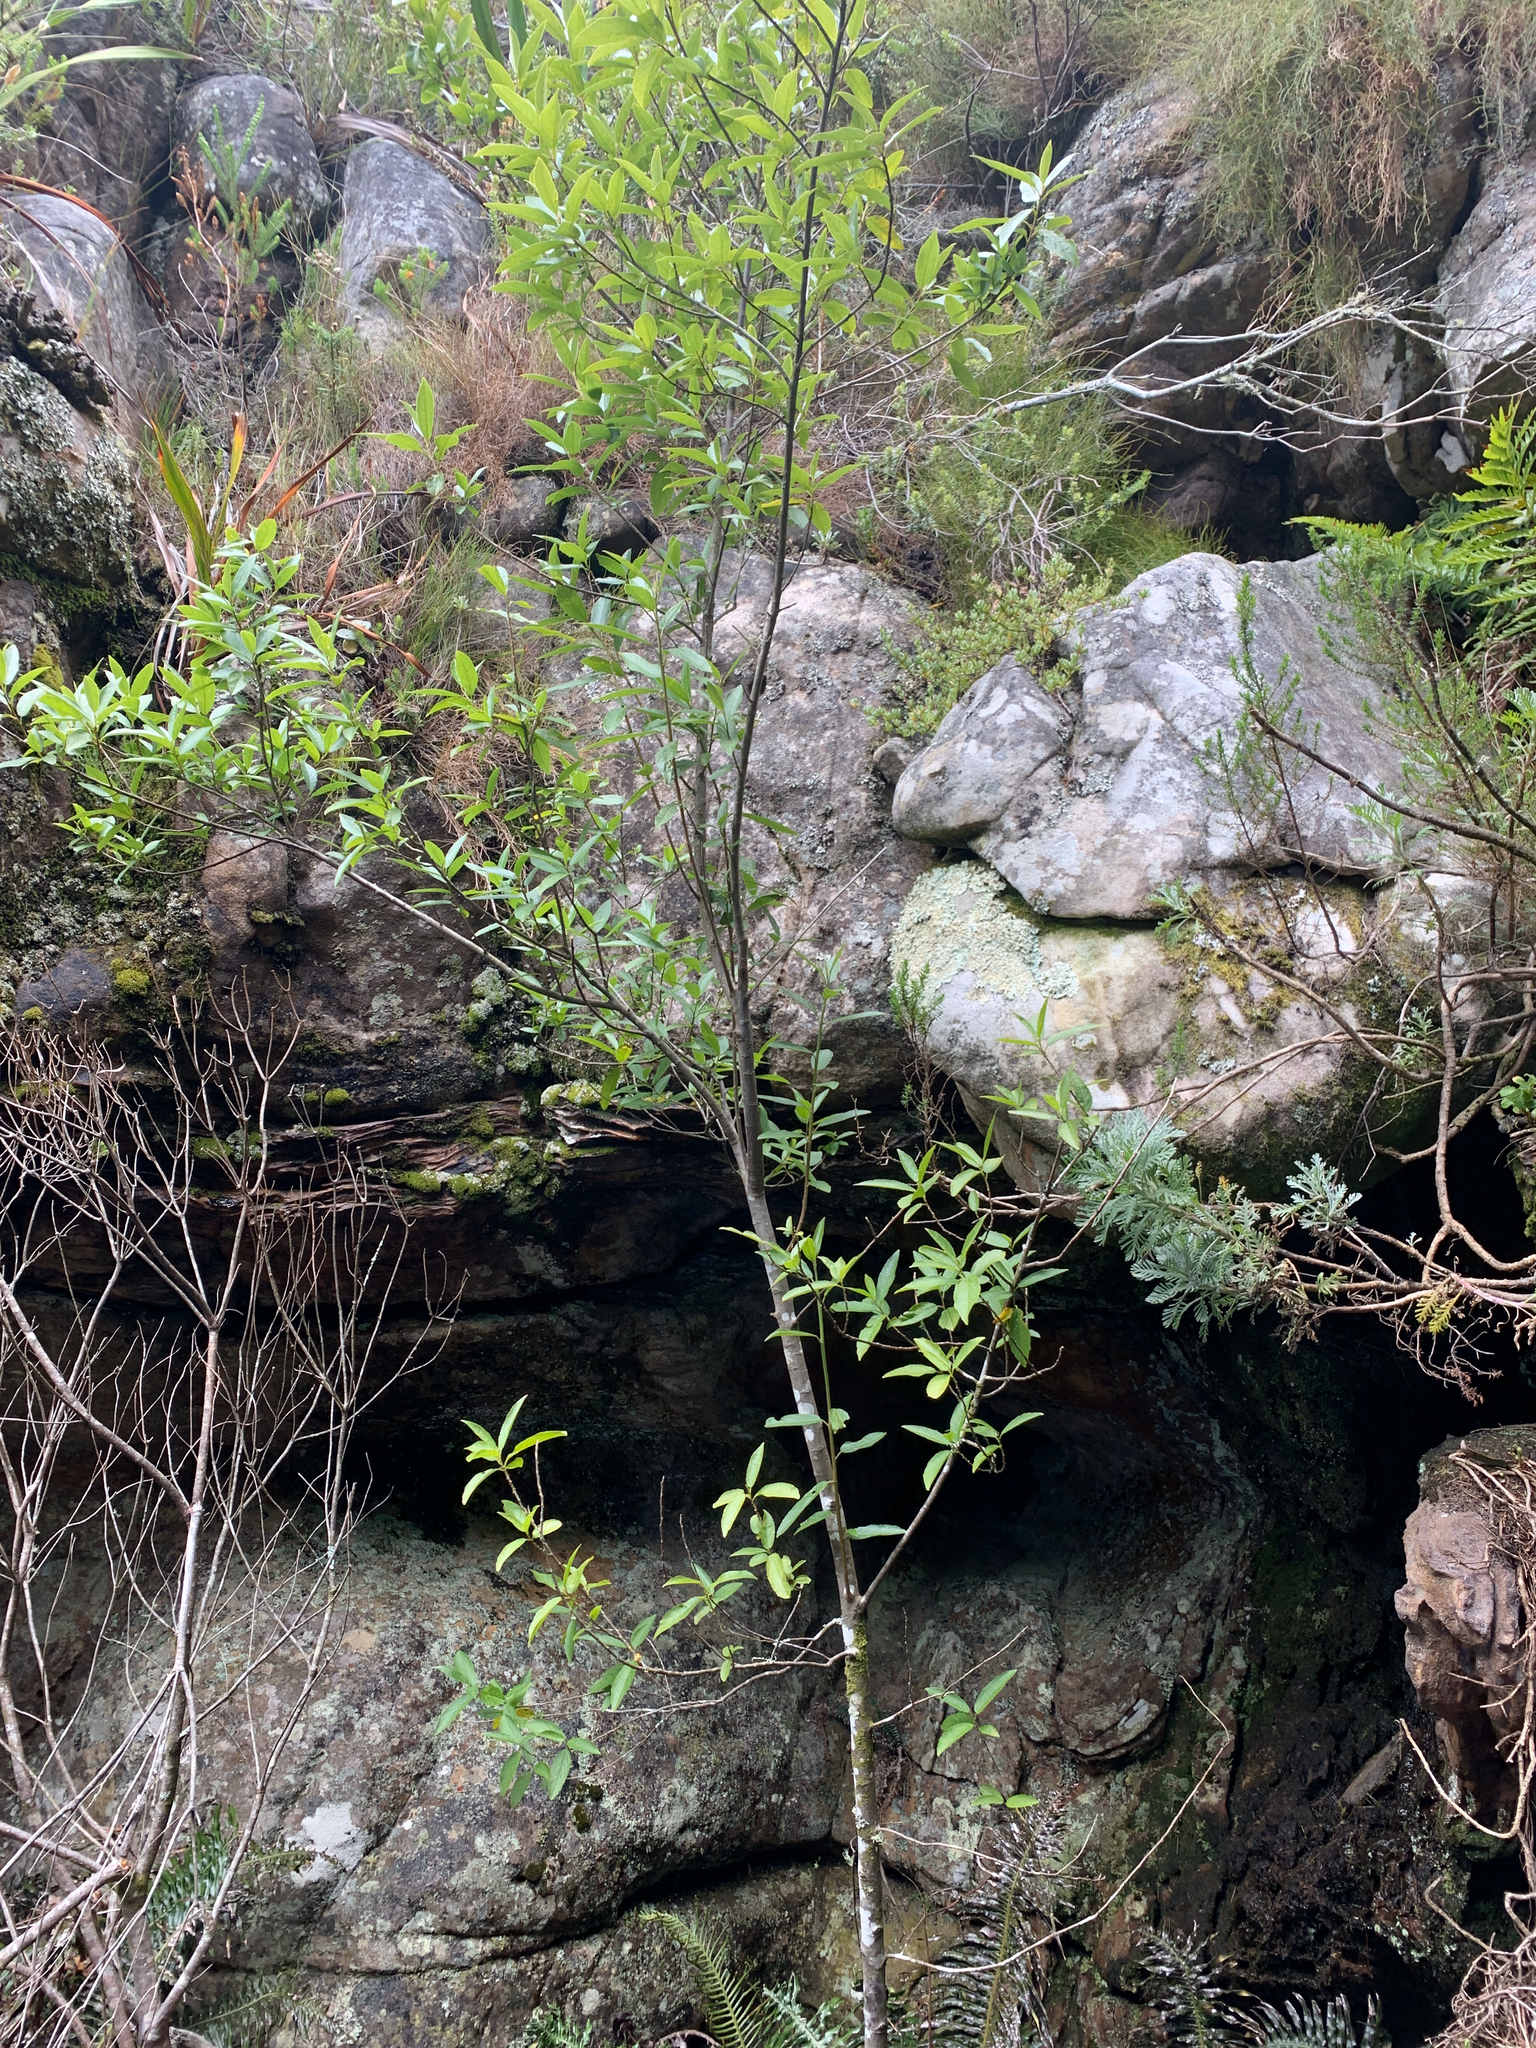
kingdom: Plantae
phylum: Tracheophyta
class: Magnoliopsida
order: Malpighiales
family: Achariaceae
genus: Kiggelaria
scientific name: Kiggelaria africana
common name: Wild peach
